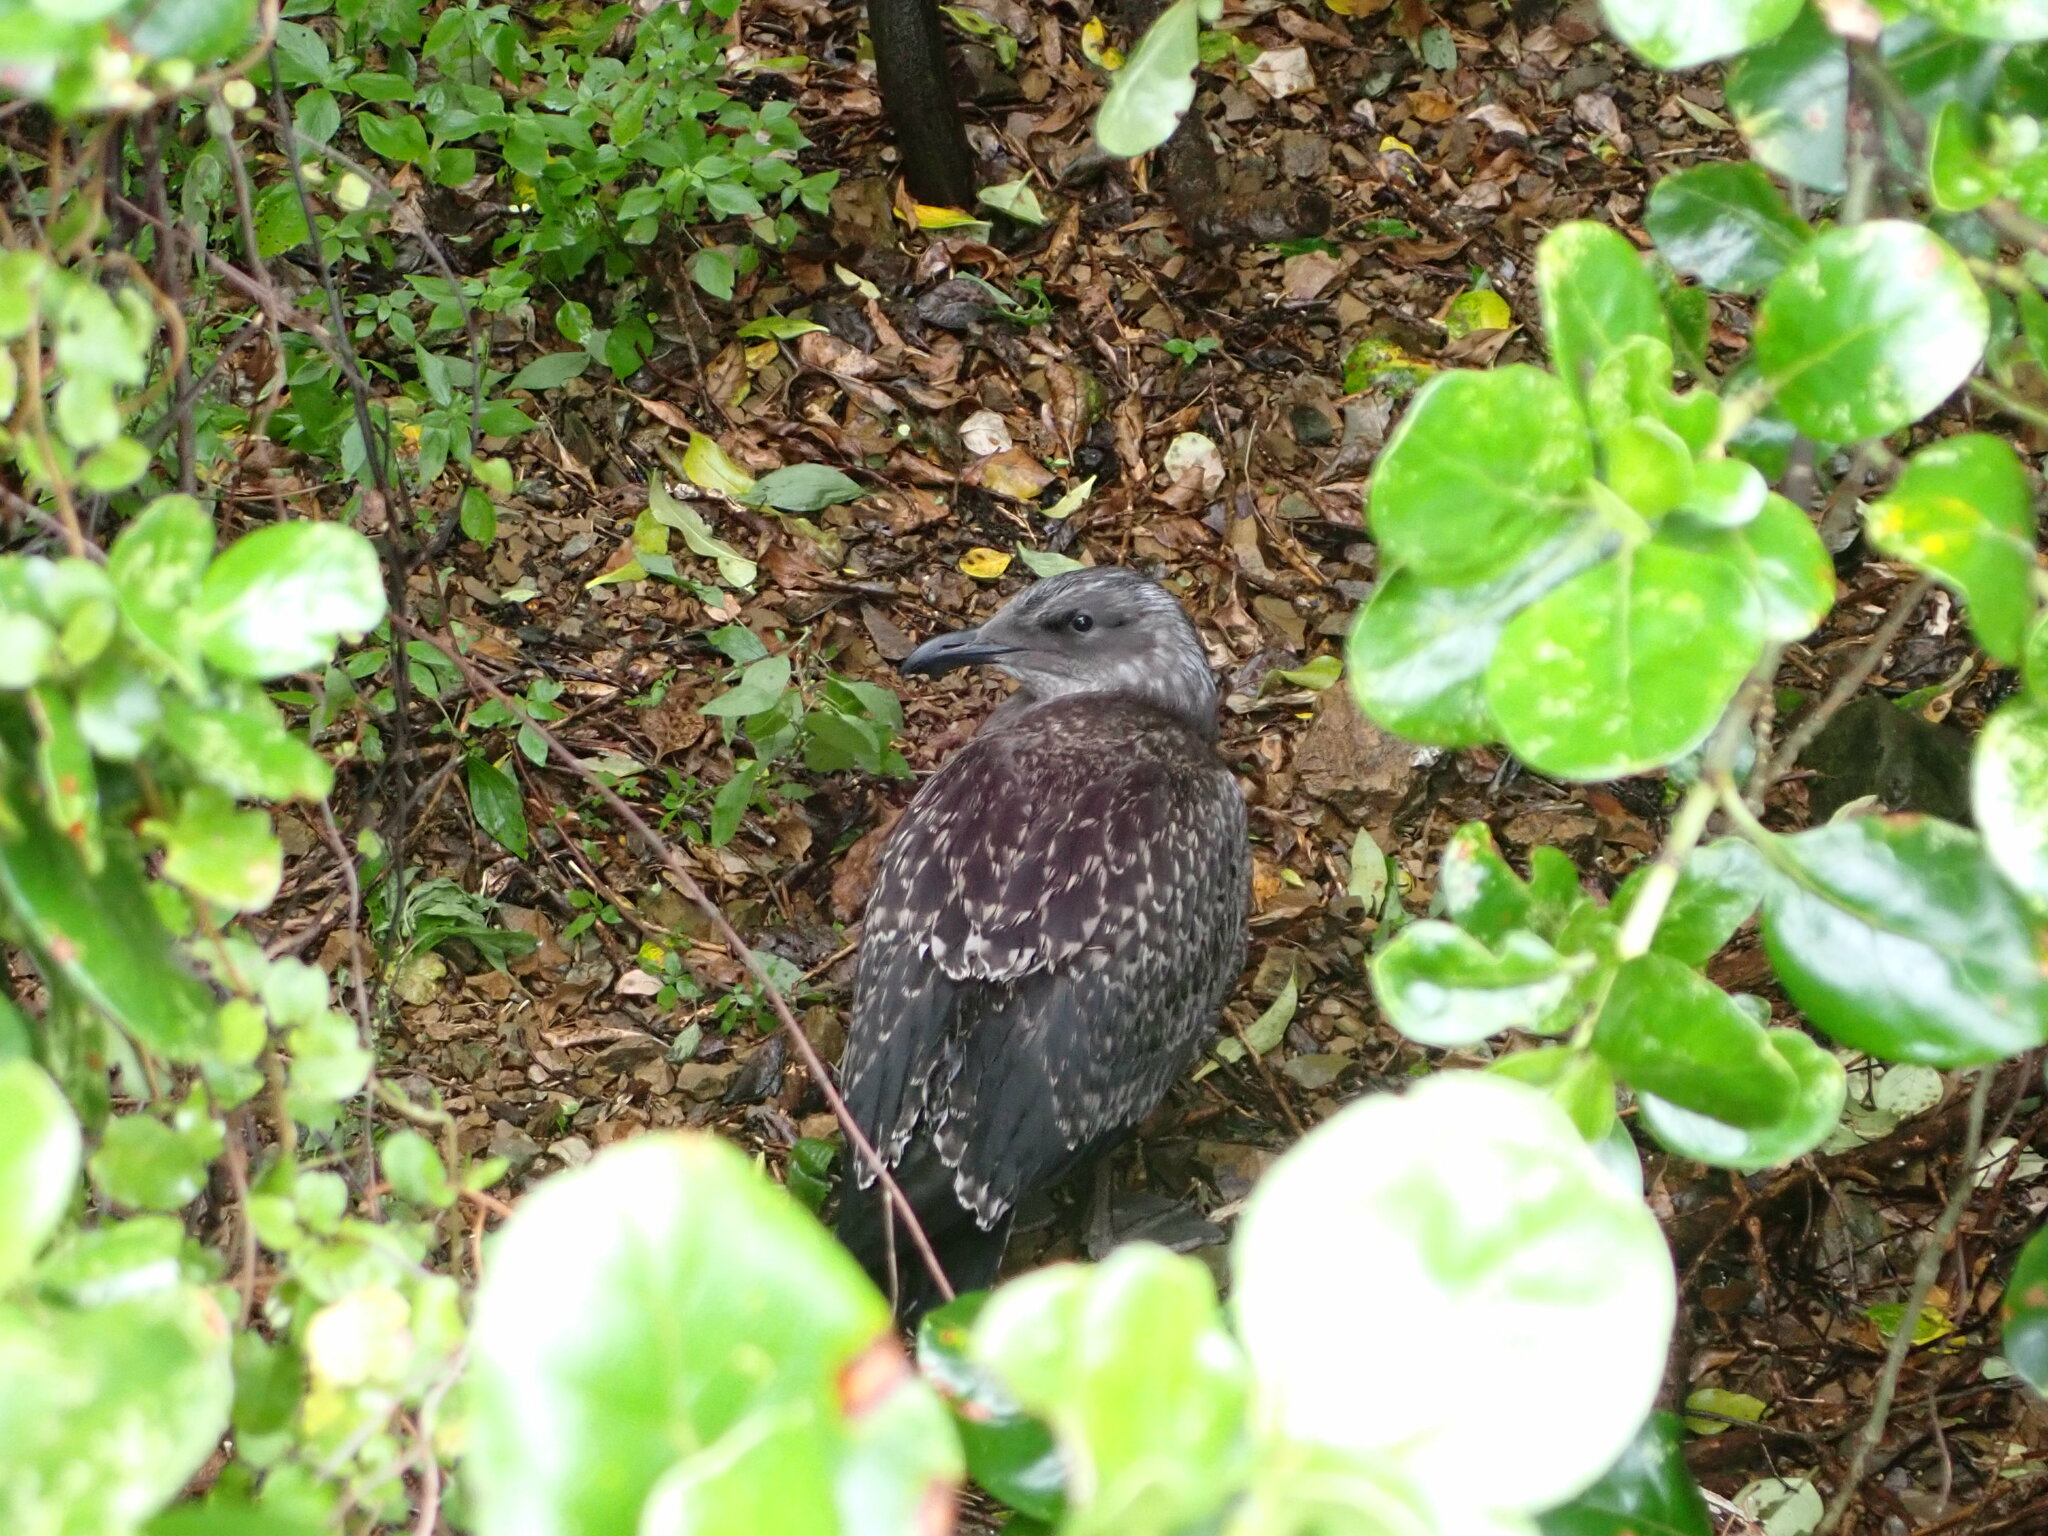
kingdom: Animalia
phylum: Chordata
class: Aves
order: Charadriiformes
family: Laridae
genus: Larus
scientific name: Larus dominicanus
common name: Kelp gull
